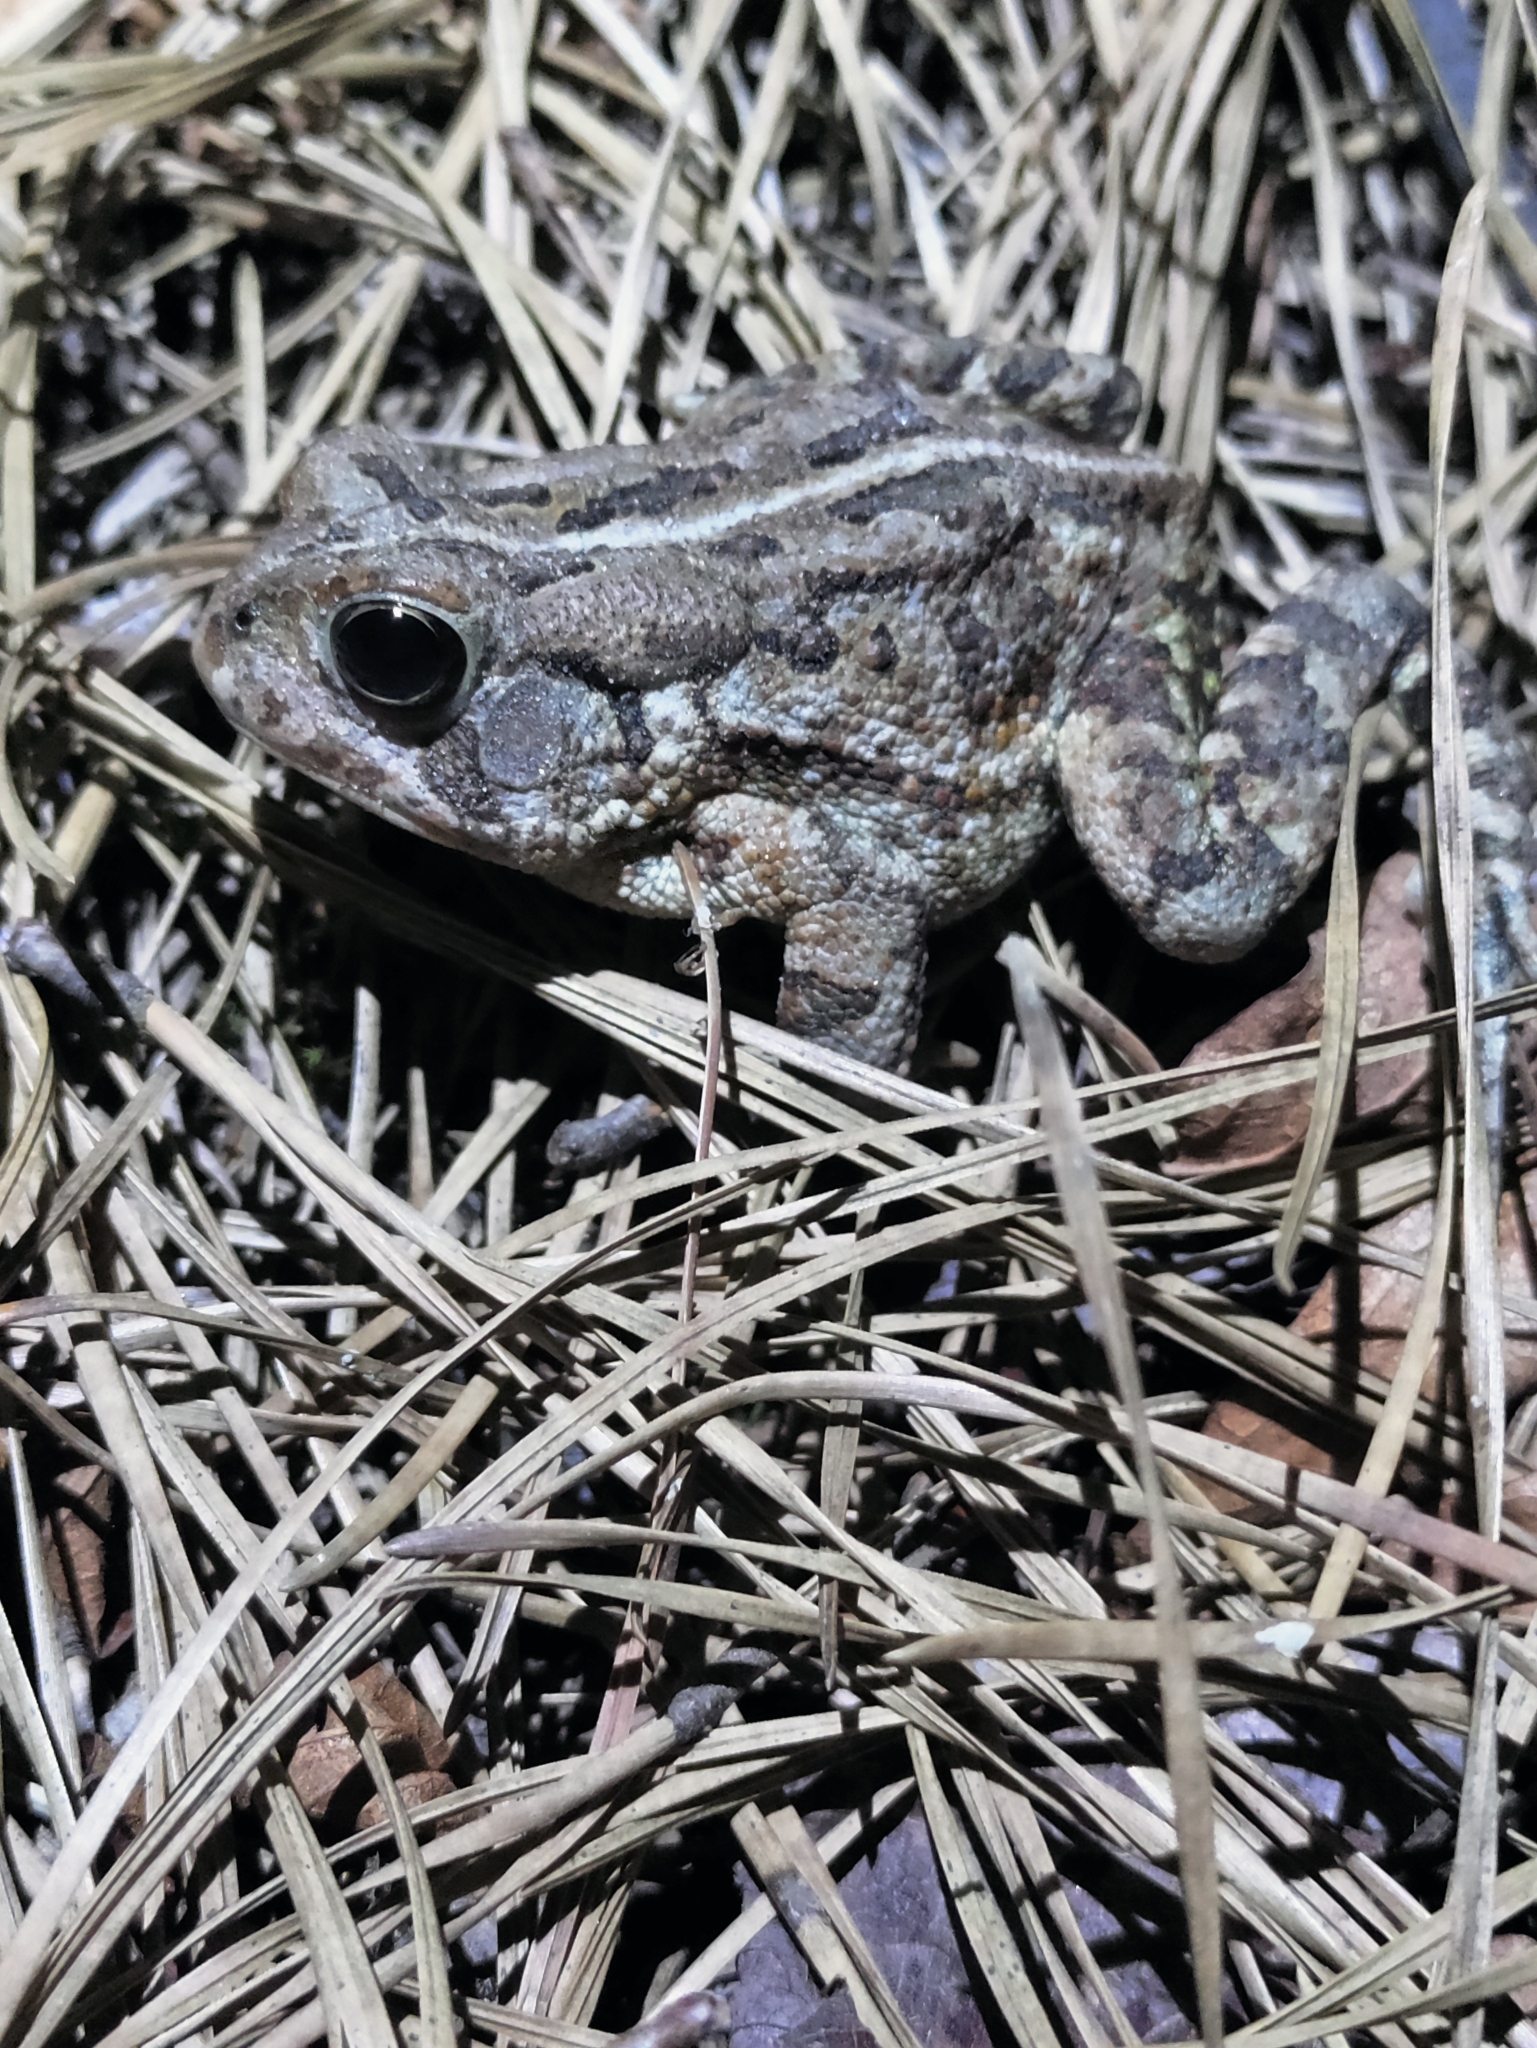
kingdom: Animalia
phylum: Chordata
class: Amphibia
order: Anura
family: Bufonidae
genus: Anaxyrus
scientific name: Anaxyrus fowleri
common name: Fowler's toad
